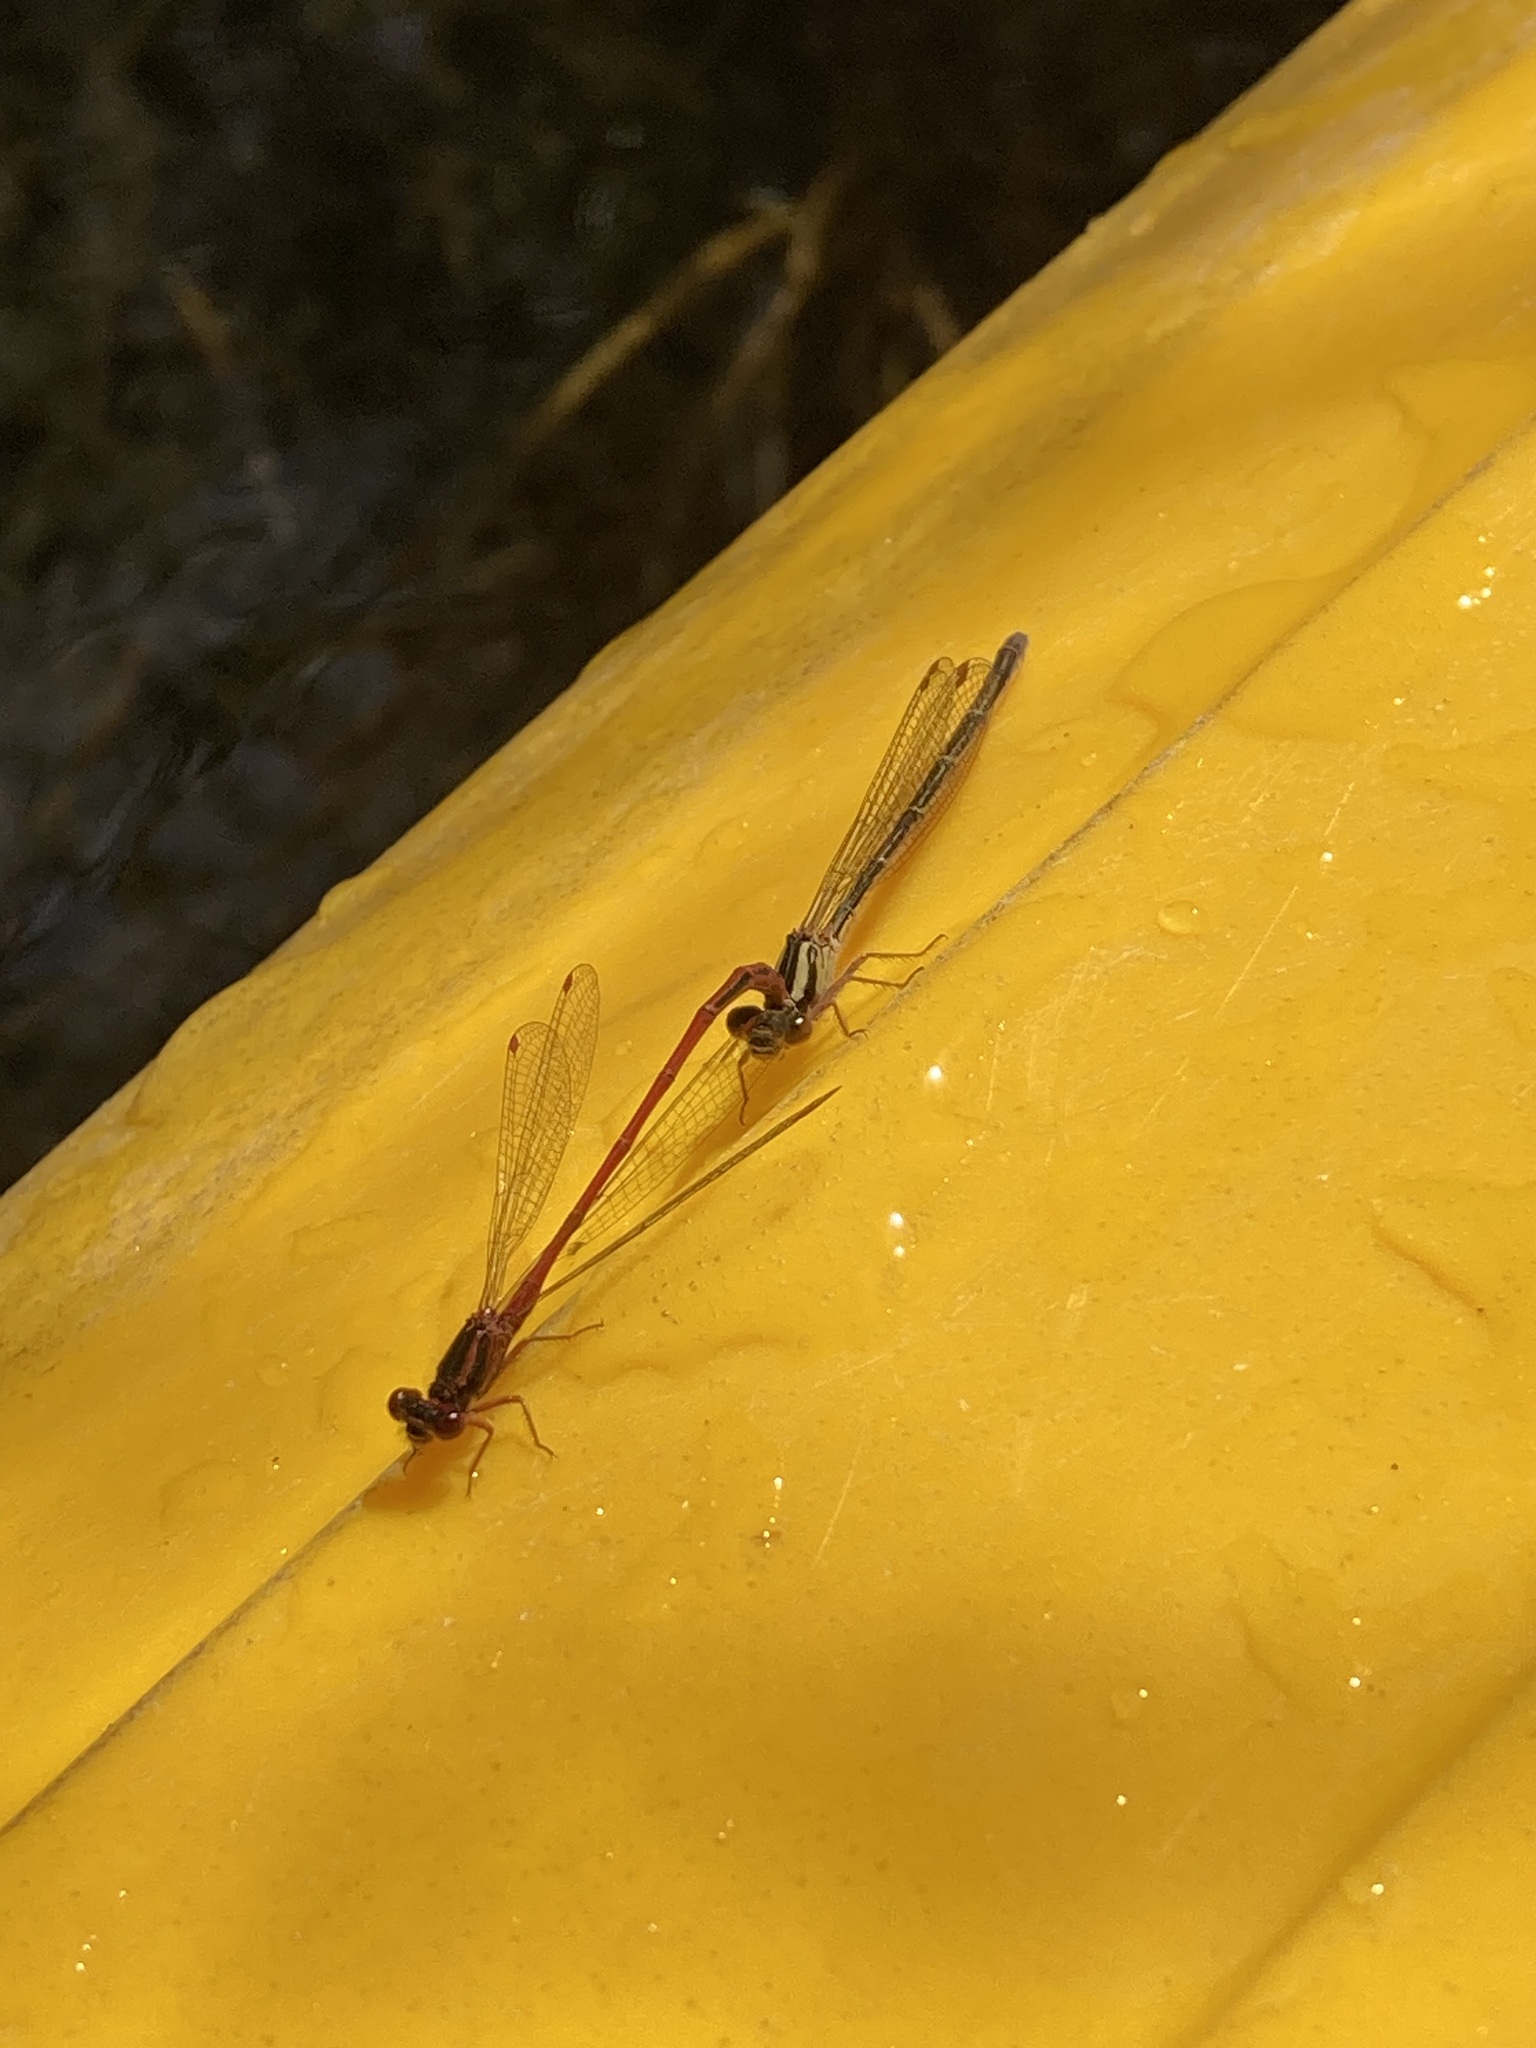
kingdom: Animalia
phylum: Arthropoda
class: Insecta
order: Odonata
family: Coenagrionidae
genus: Xanthocnemis
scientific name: Xanthocnemis zealandica
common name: Common redcoat damselfly
